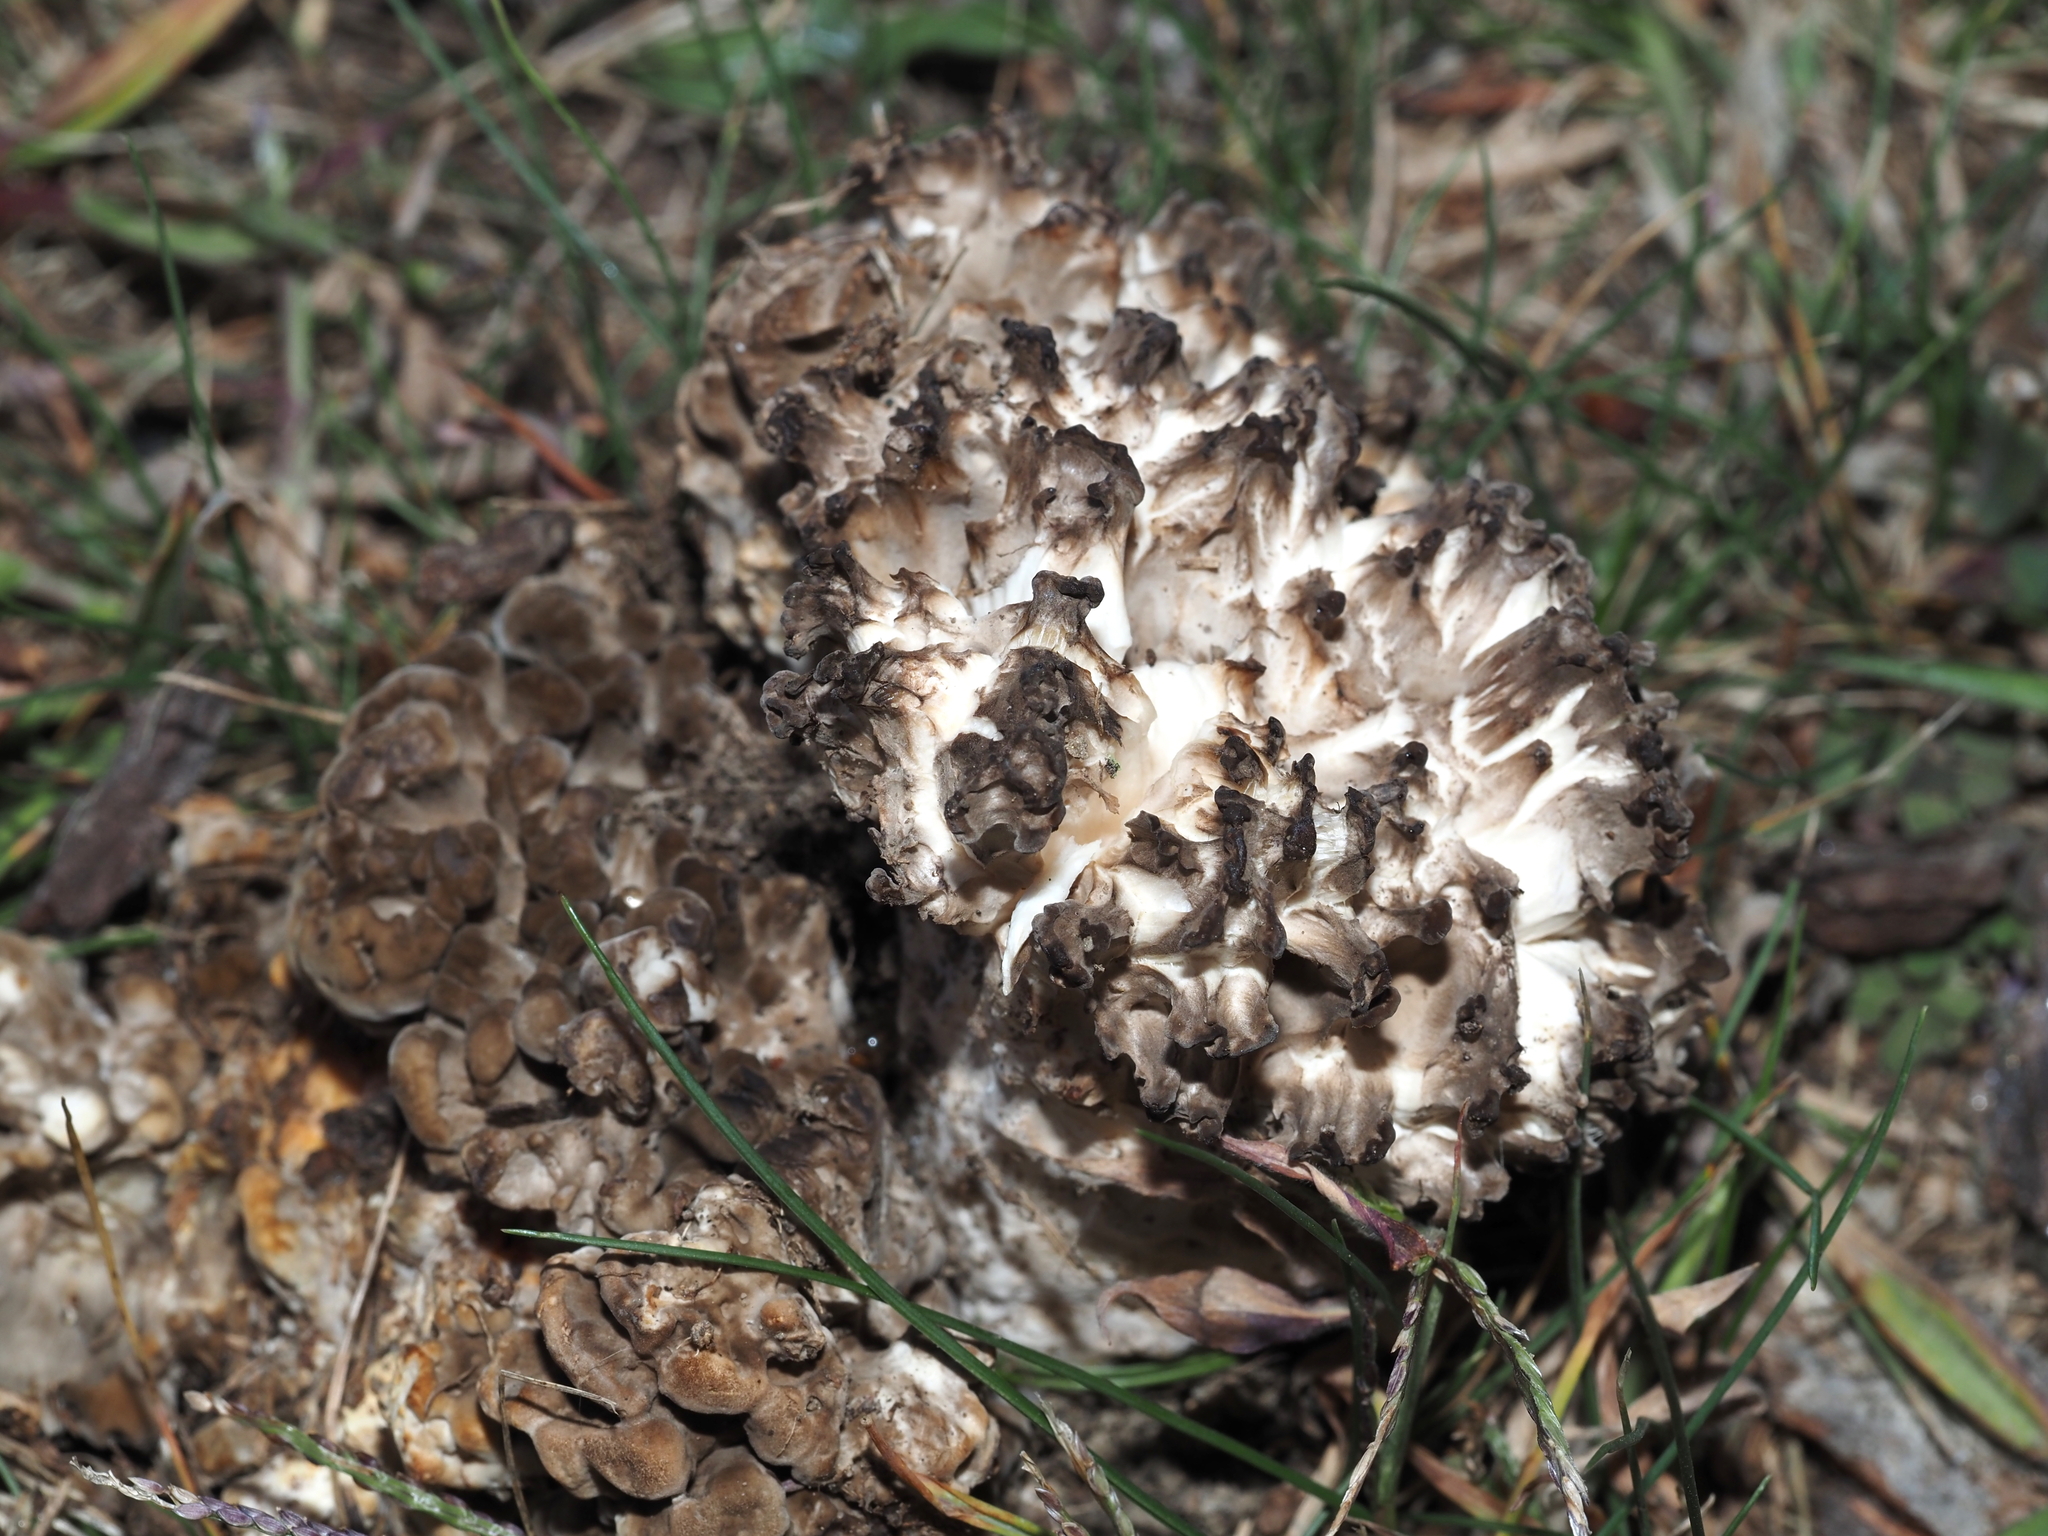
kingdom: Fungi
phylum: Basidiomycota
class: Agaricomycetes
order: Polyporales
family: Grifolaceae
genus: Grifola
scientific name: Grifola frondosa
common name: Hen of the woods
